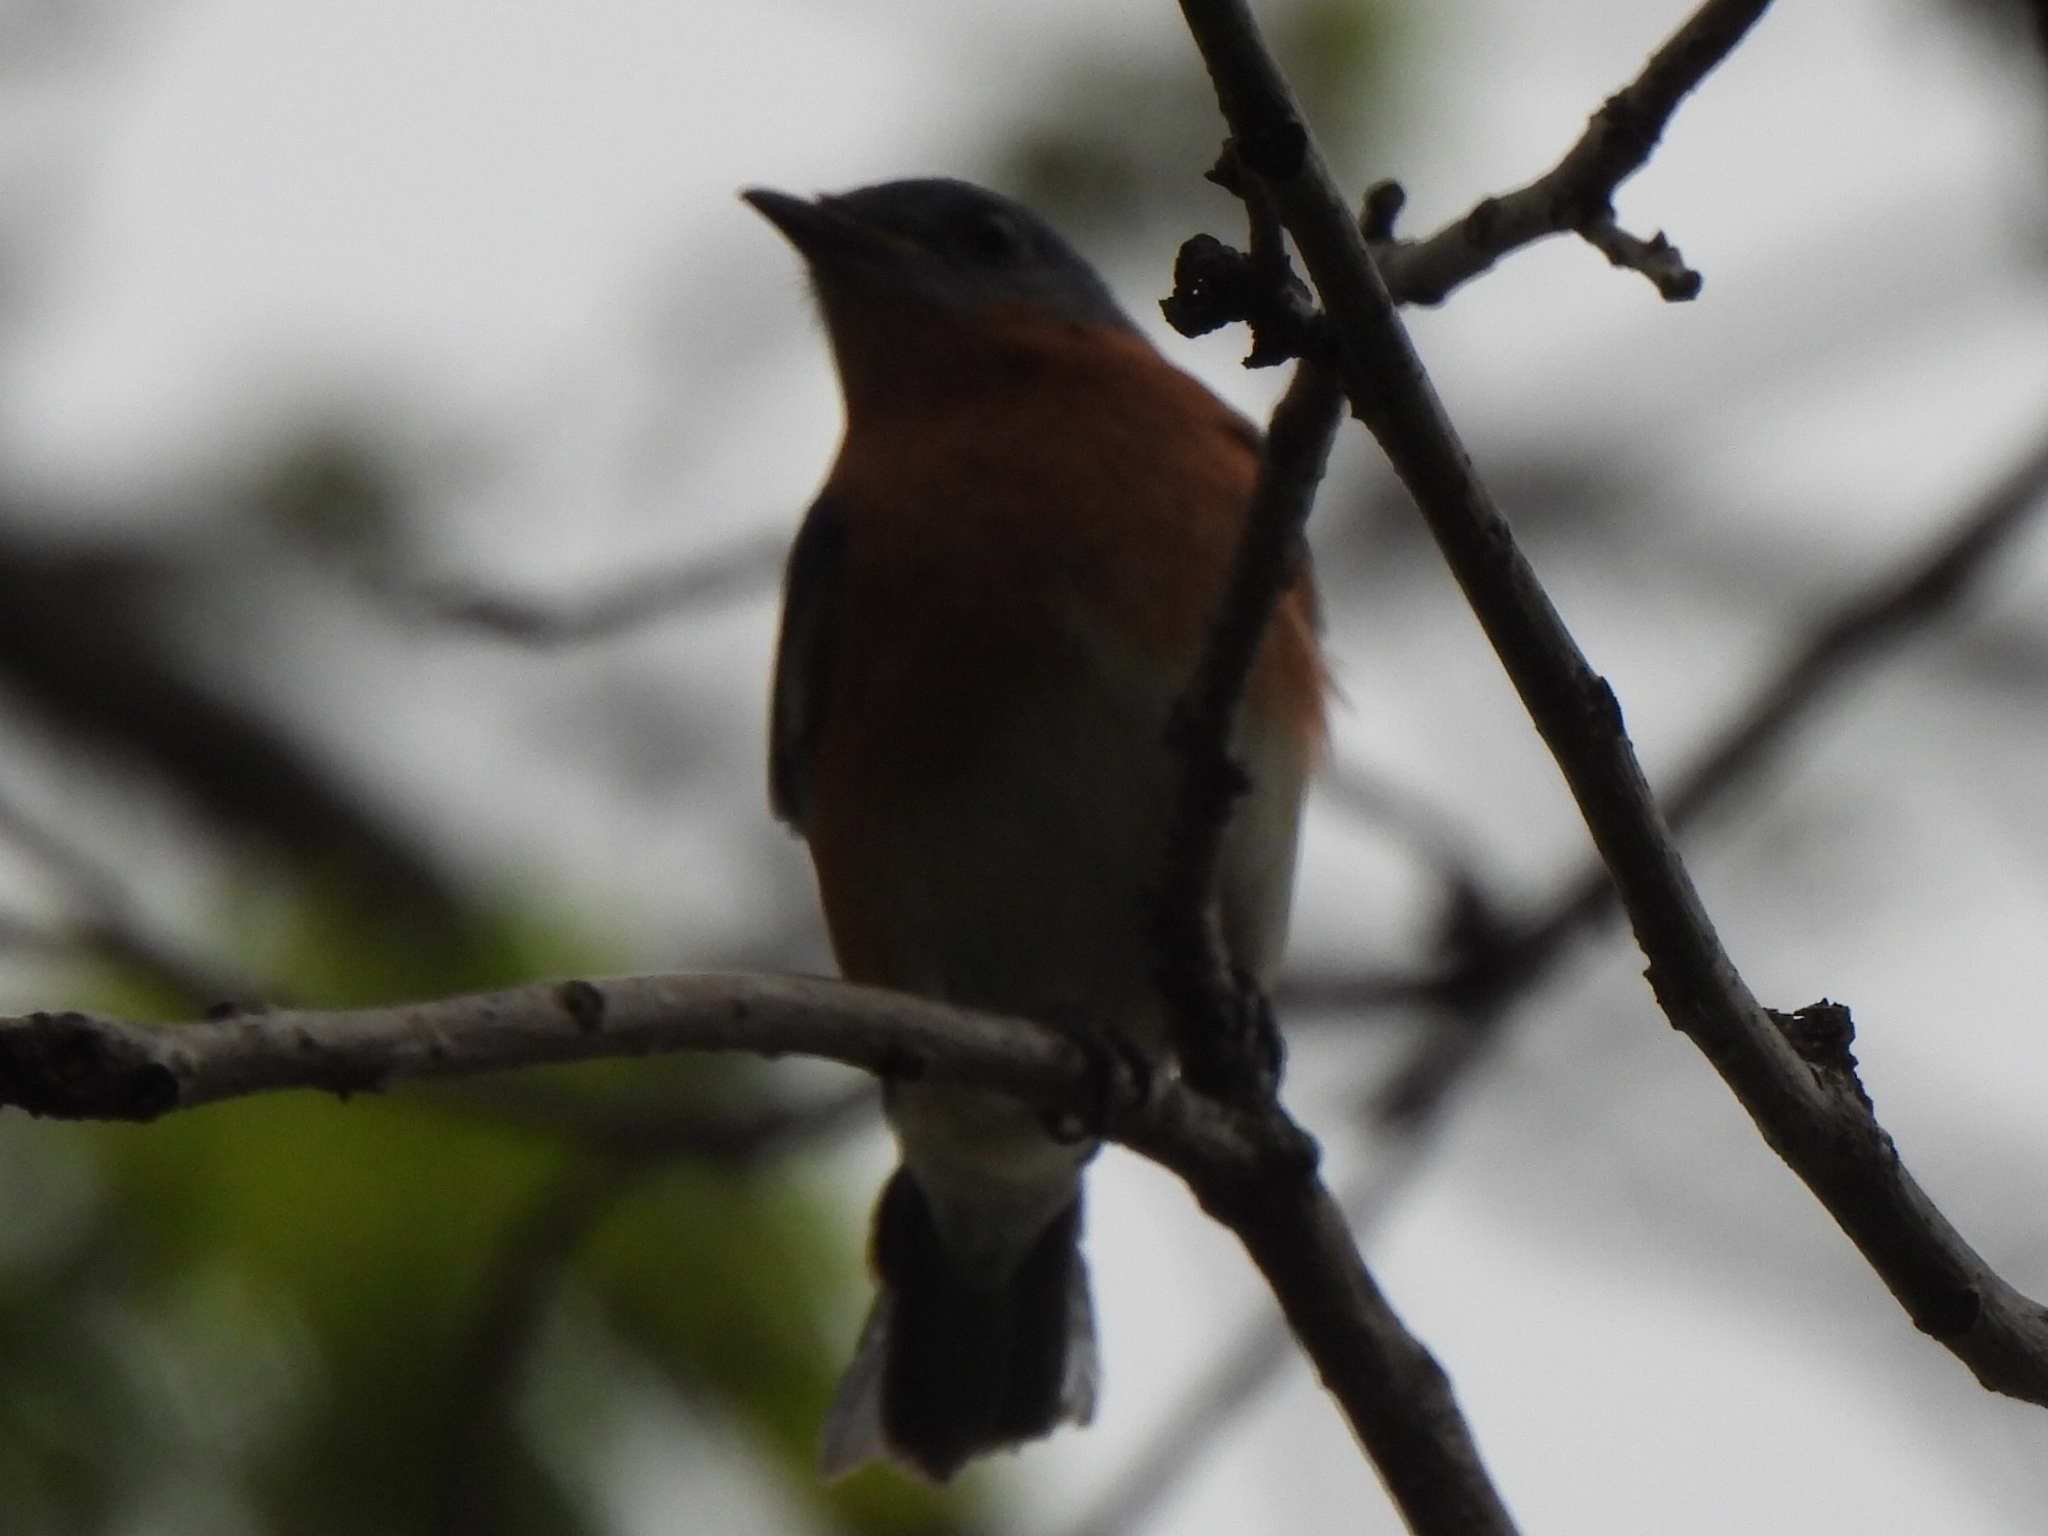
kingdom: Animalia
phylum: Chordata
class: Aves
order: Passeriformes
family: Turdidae
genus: Sialia
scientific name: Sialia sialis
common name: Eastern bluebird
